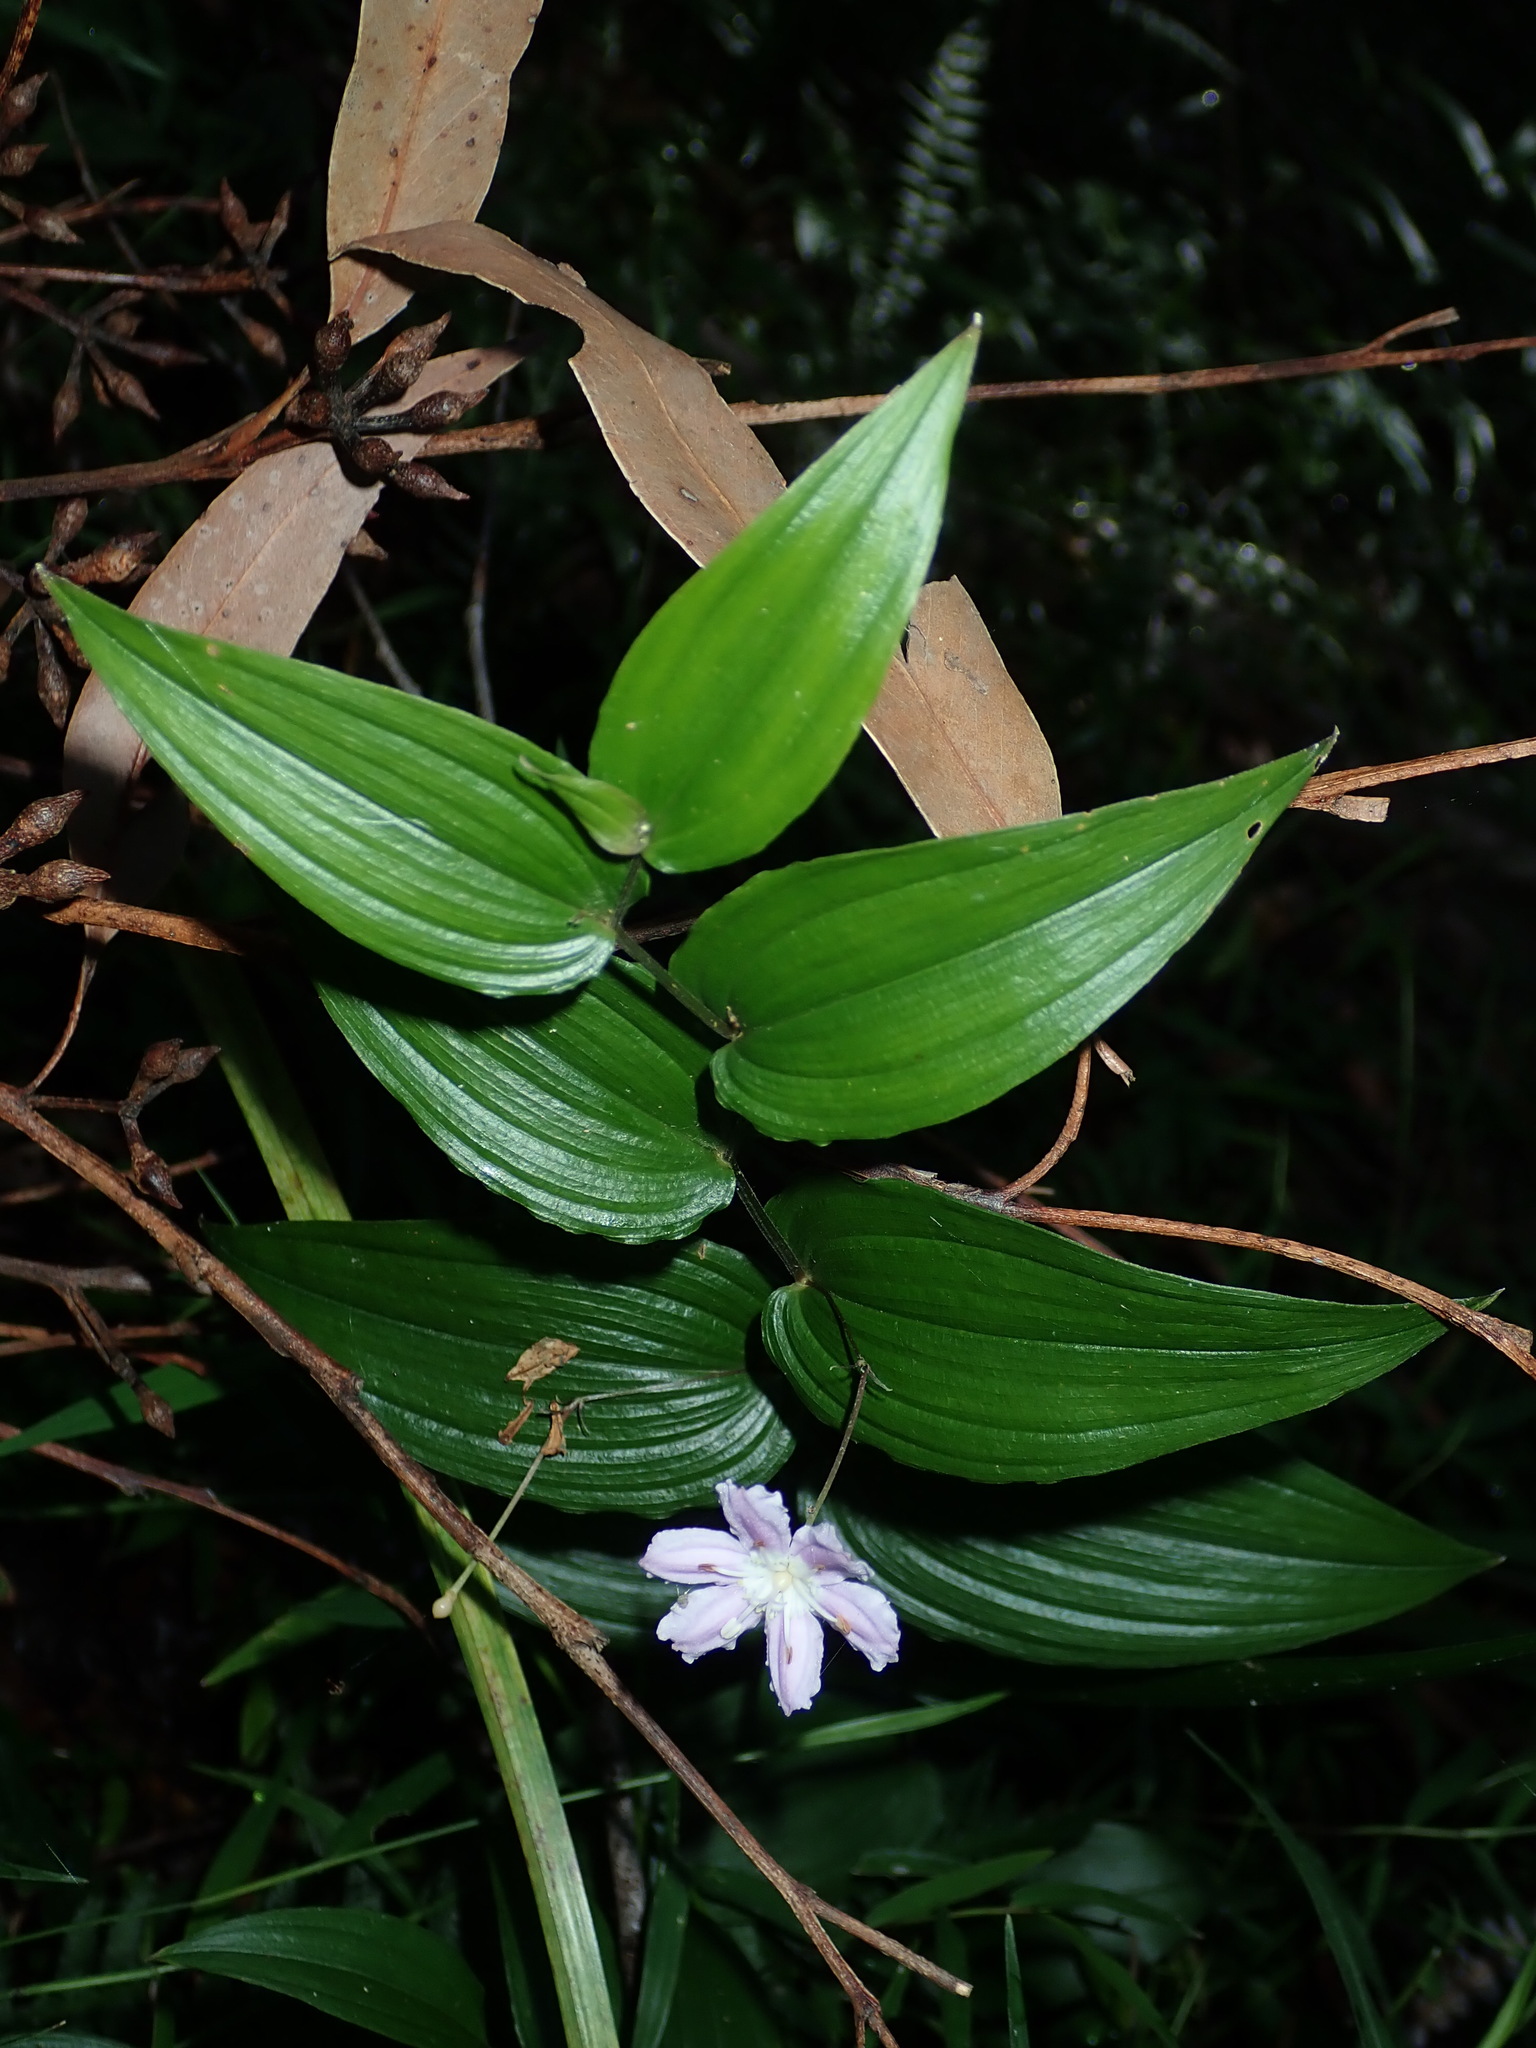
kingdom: Plantae
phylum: Tracheophyta
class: Liliopsida
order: Liliales
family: Colchicaceae
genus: Tripladenia
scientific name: Tripladenia cunninghamii
